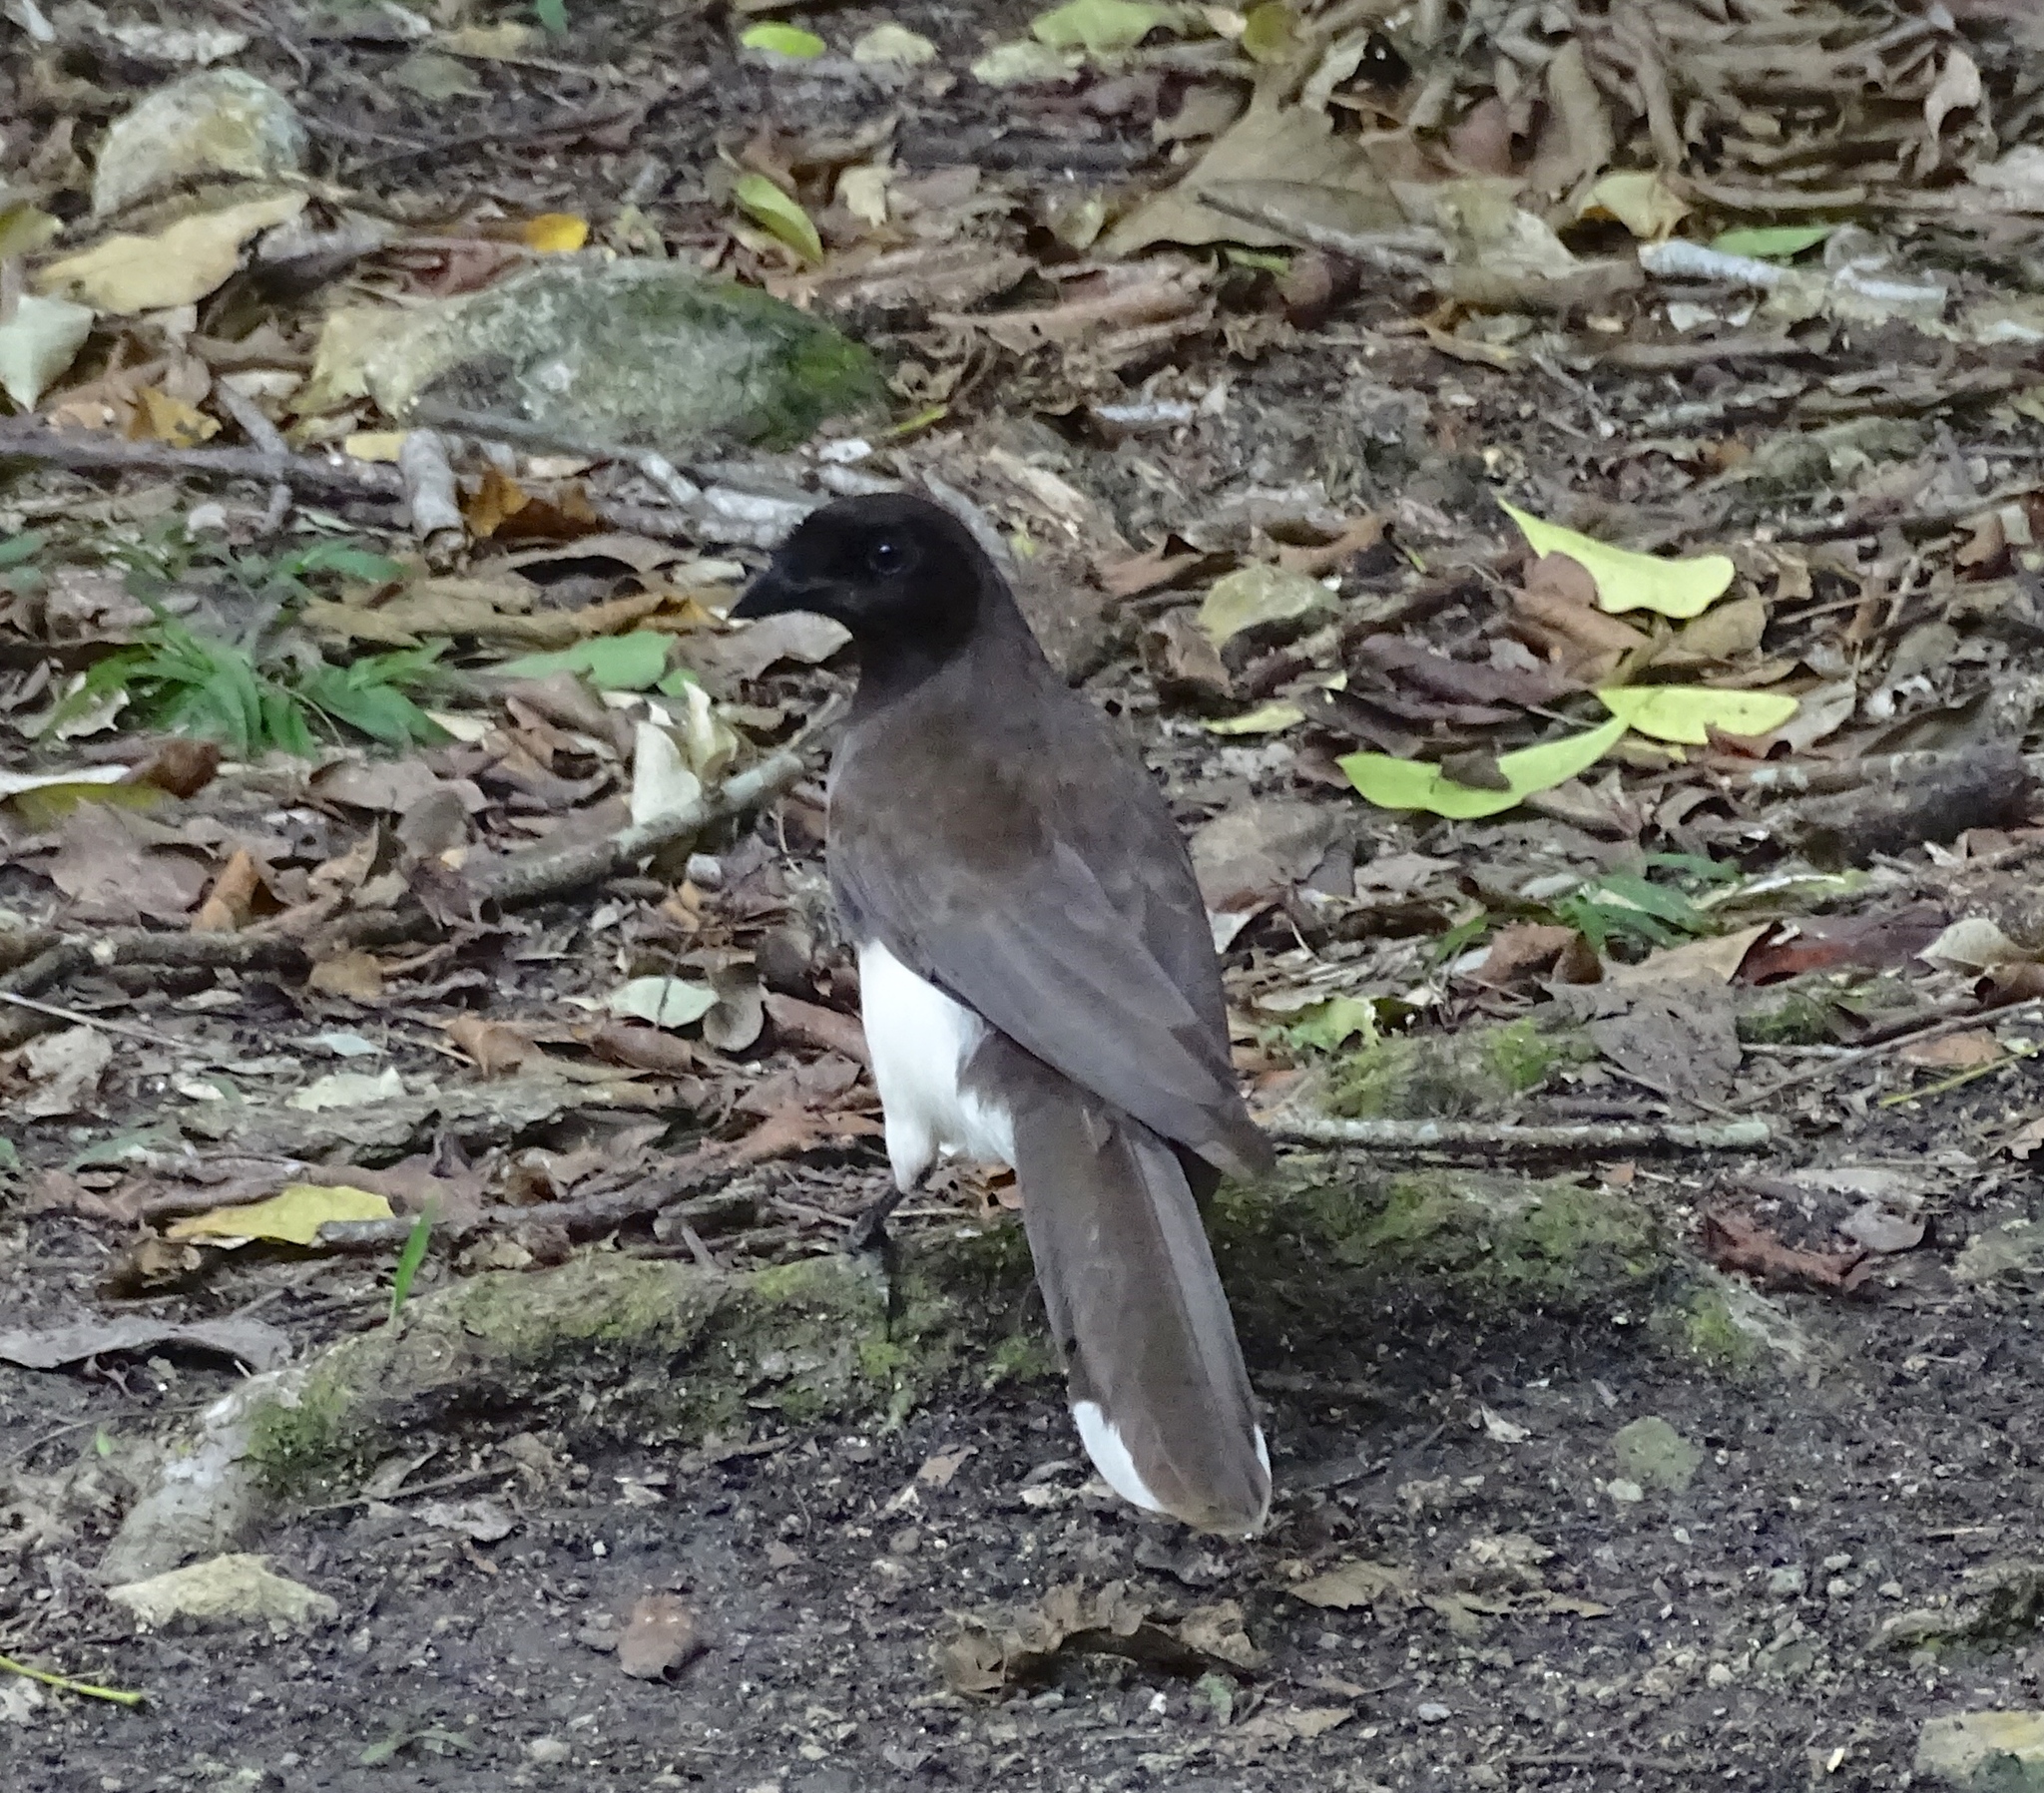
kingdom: Animalia
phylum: Chordata
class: Aves
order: Passeriformes
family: Corvidae
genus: Psilorhinus
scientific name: Psilorhinus morio
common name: Brown jay
